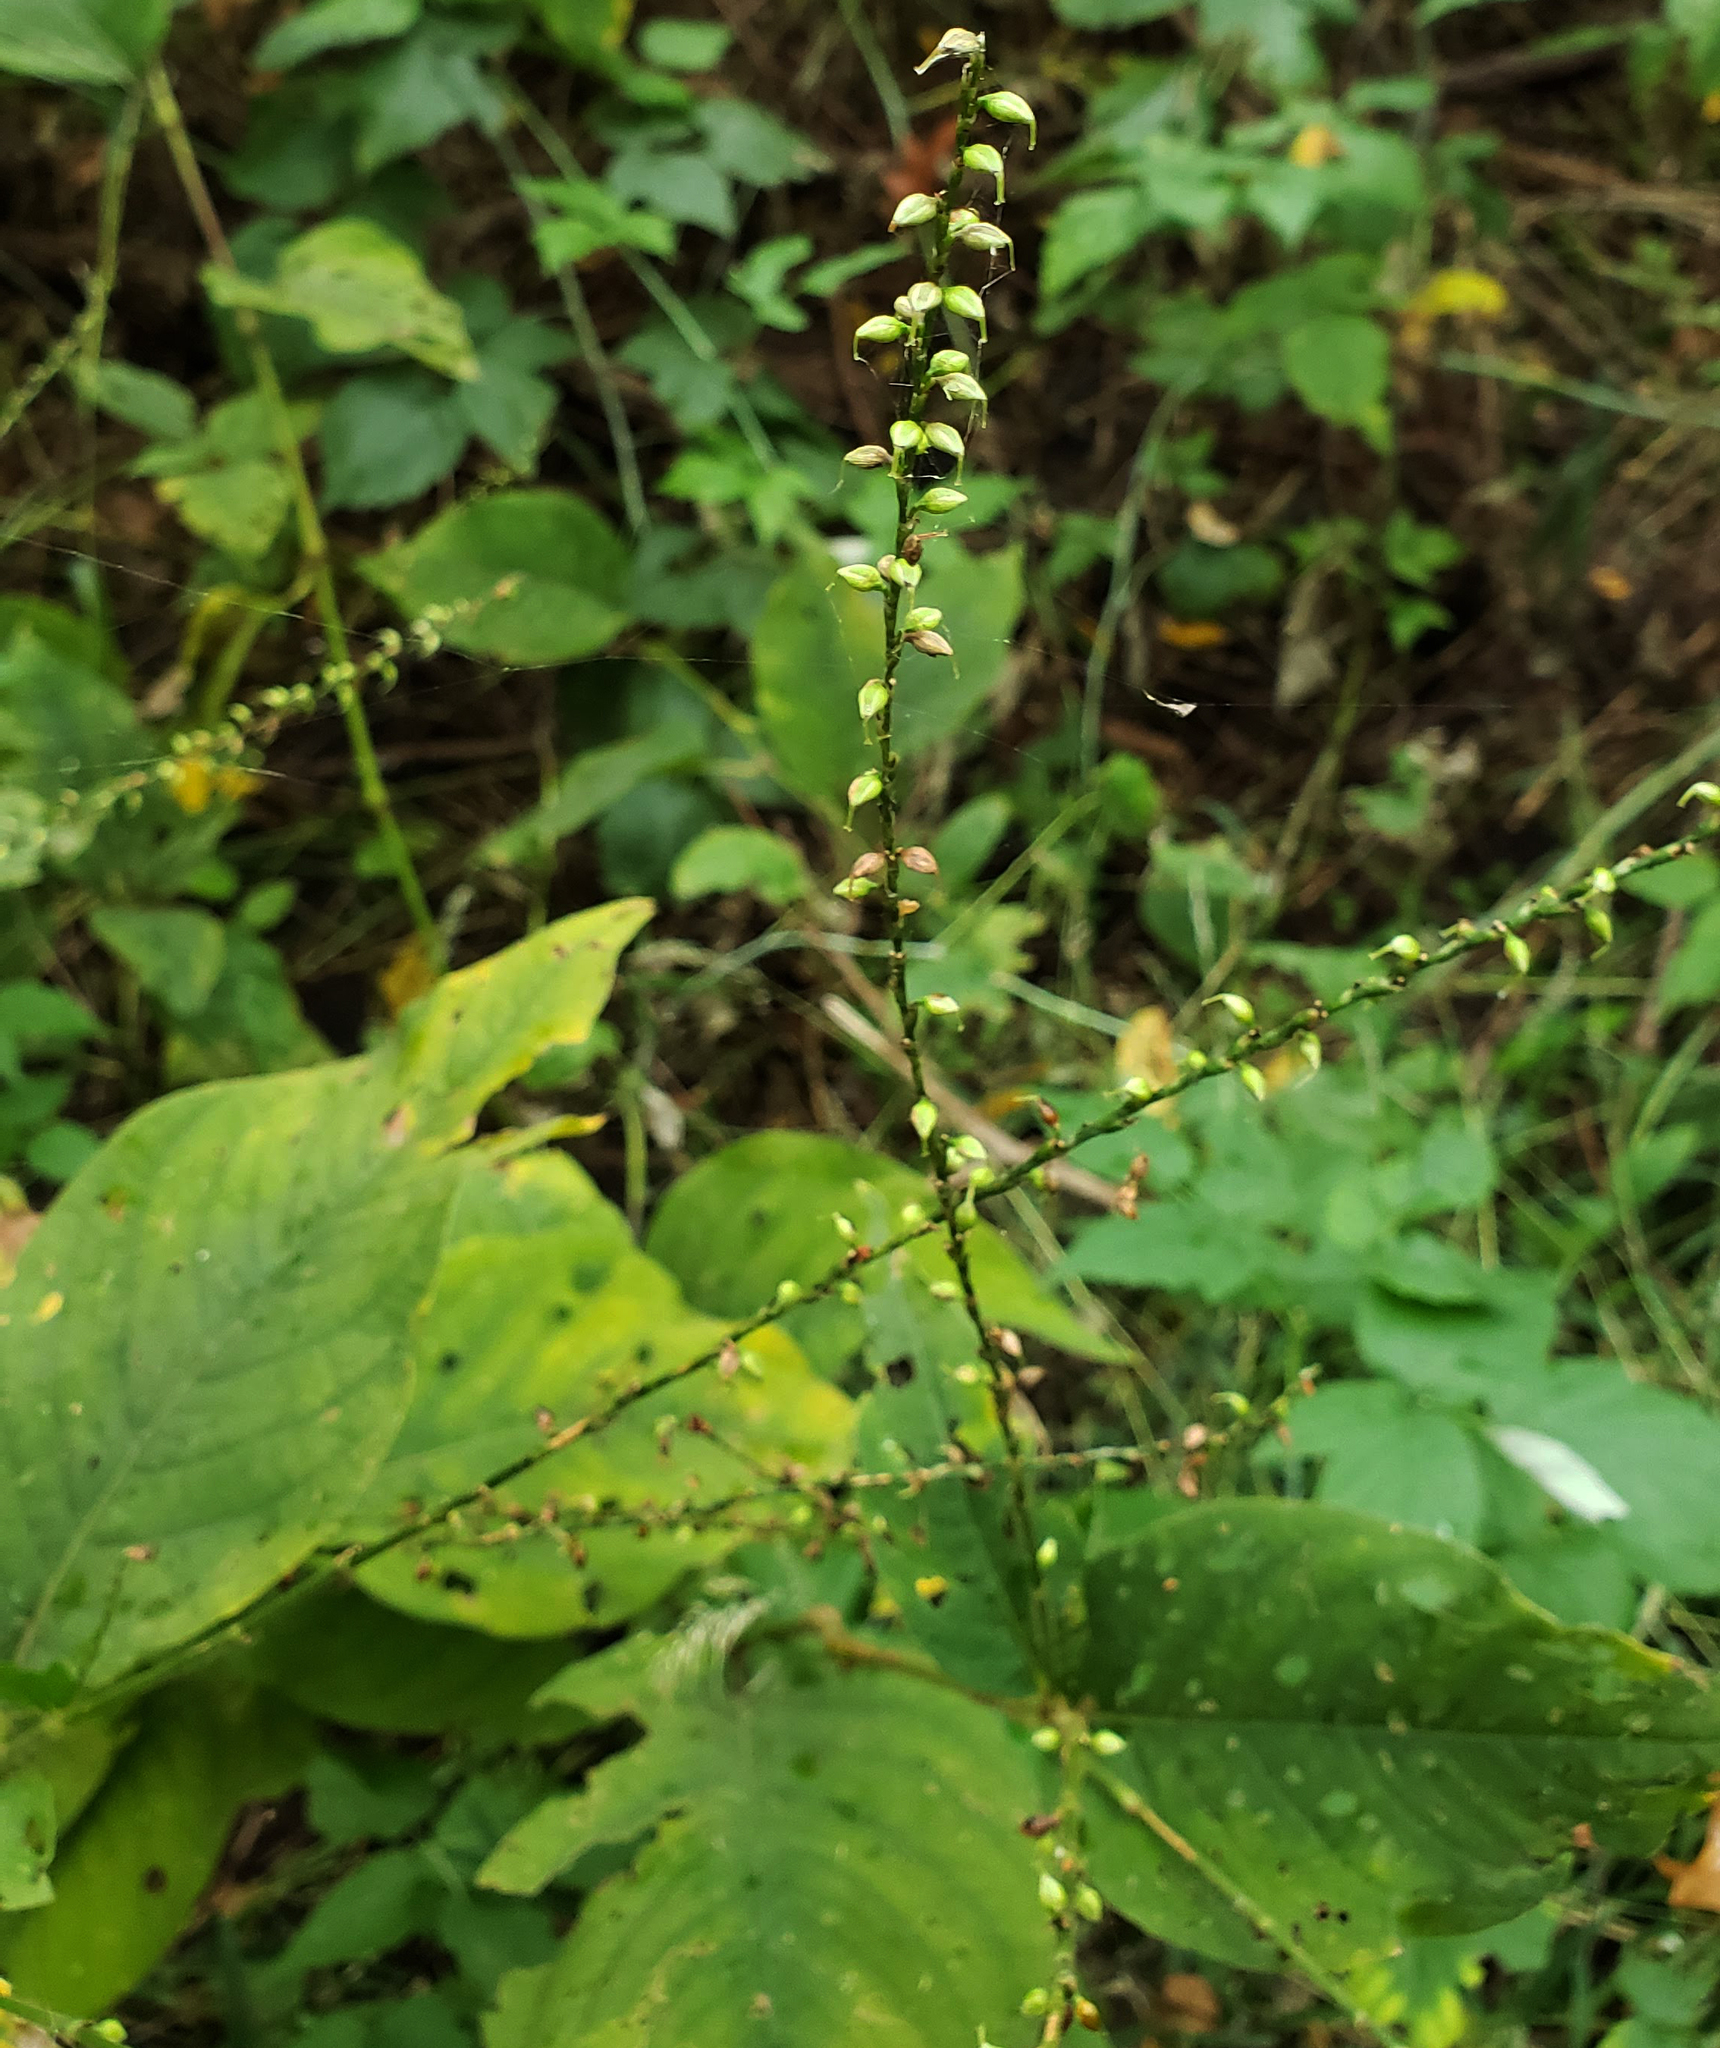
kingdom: Plantae
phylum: Tracheophyta
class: Magnoliopsida
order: Caryophyllales
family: Polygonaceae
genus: Persicaria
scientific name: Persicaria virginiana
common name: Jumpseed
